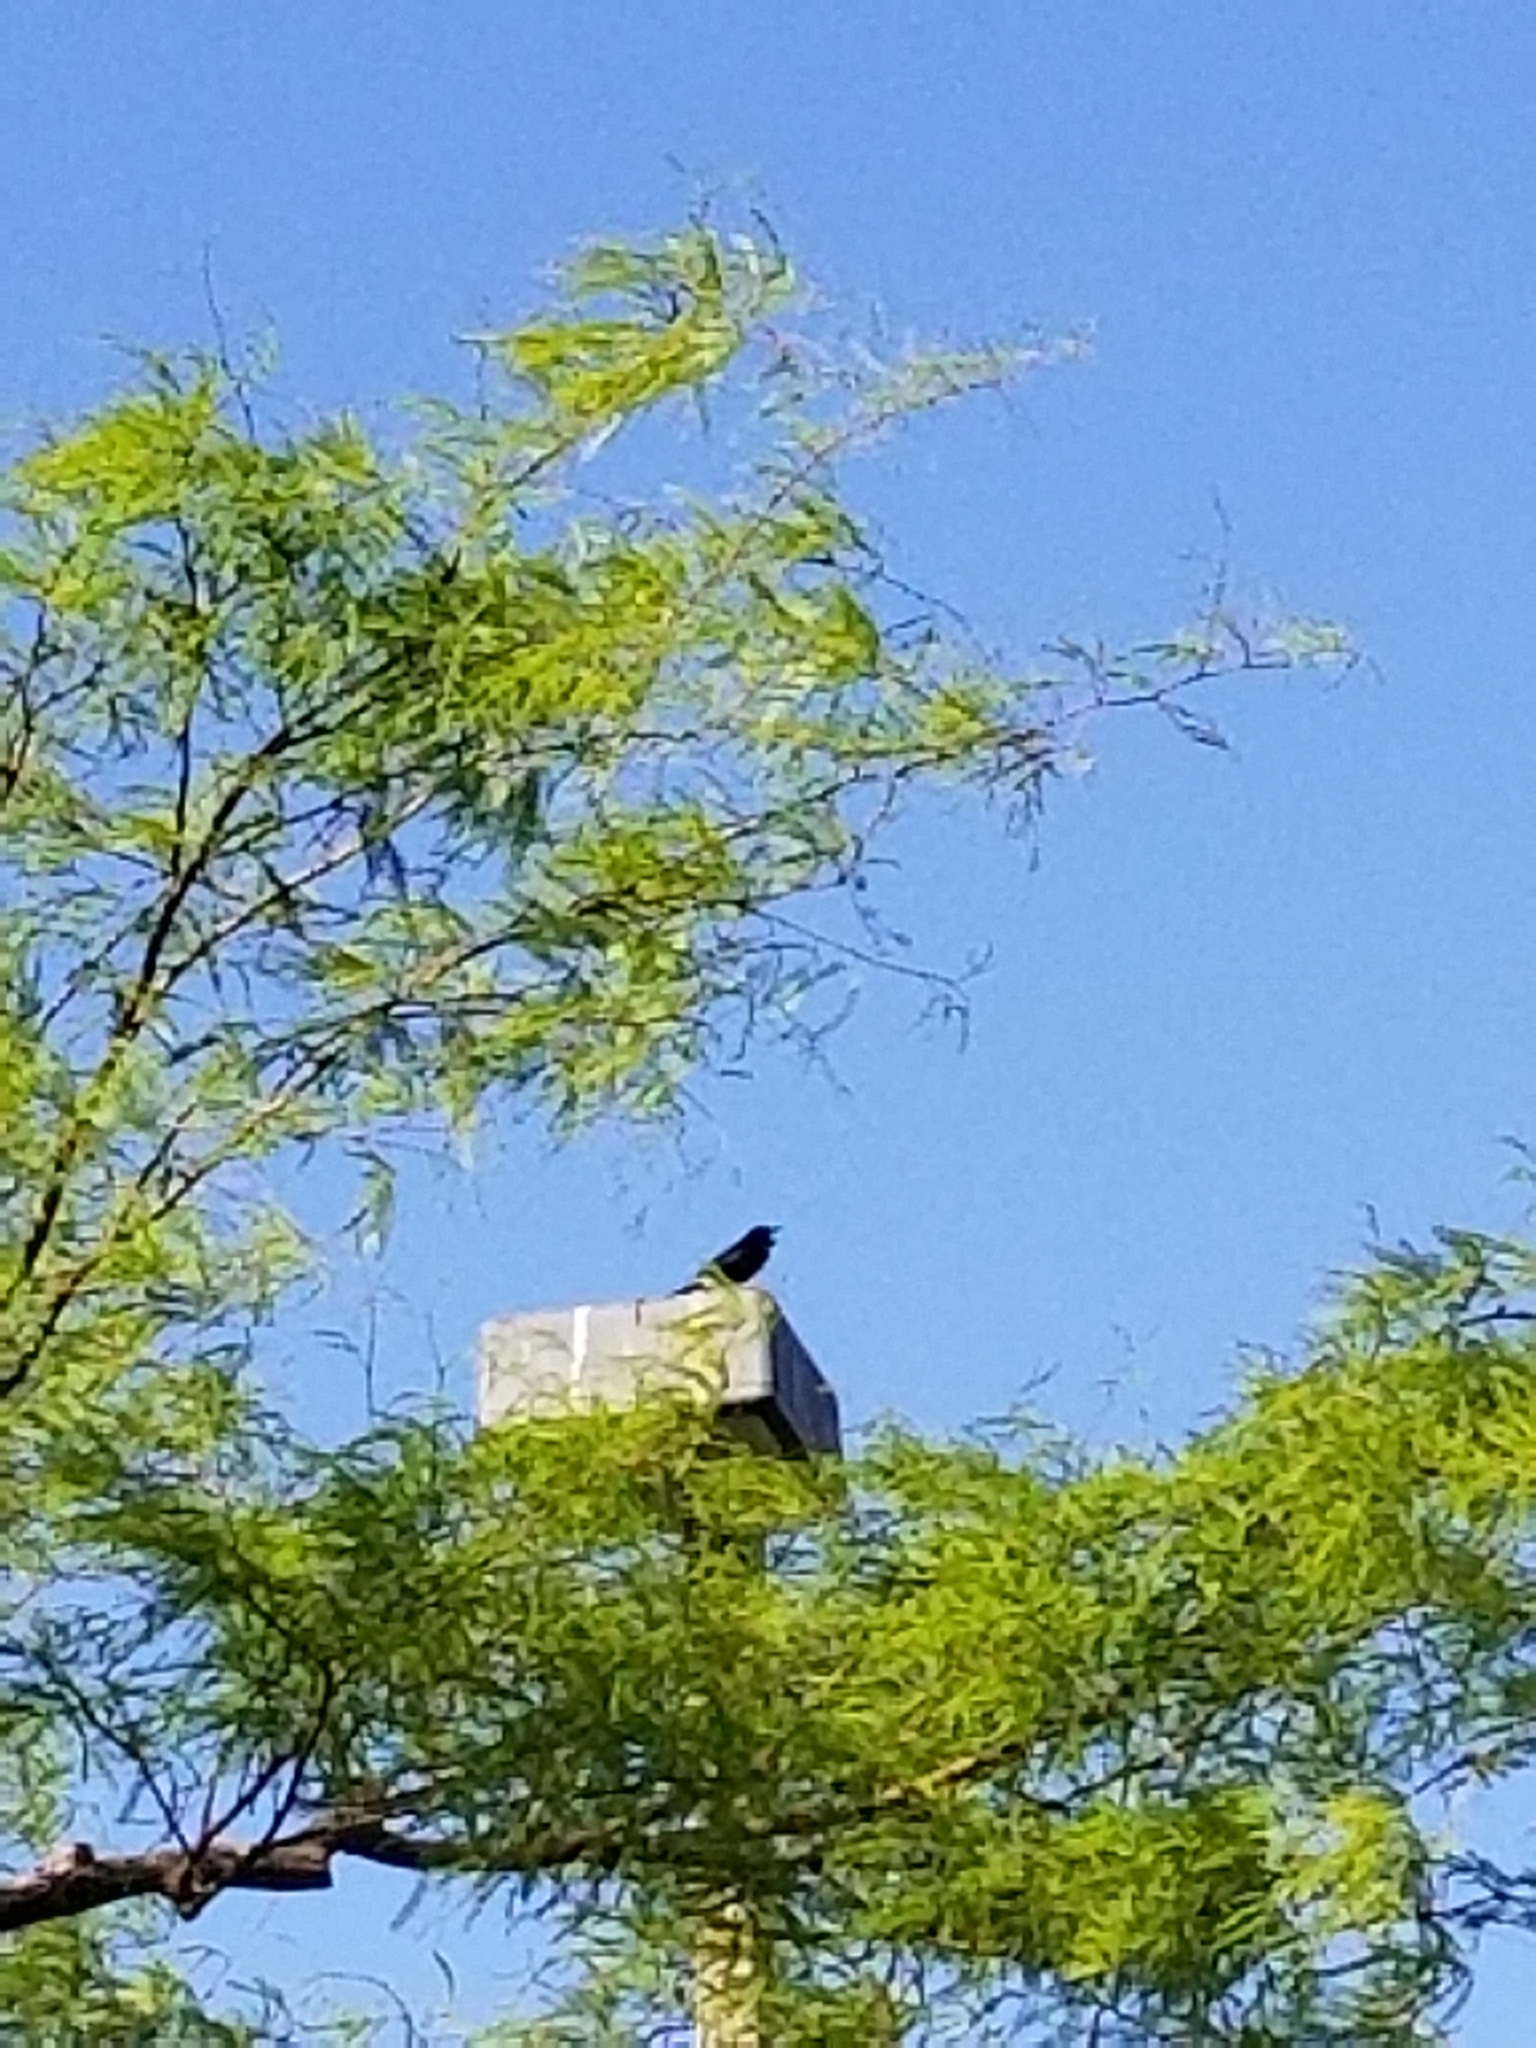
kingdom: Animalia
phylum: Chordata
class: Aves
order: Passeriformes
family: Icteridae
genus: Euphagus
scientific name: Euphagus cyanocephalus
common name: Brewer's blackbird
